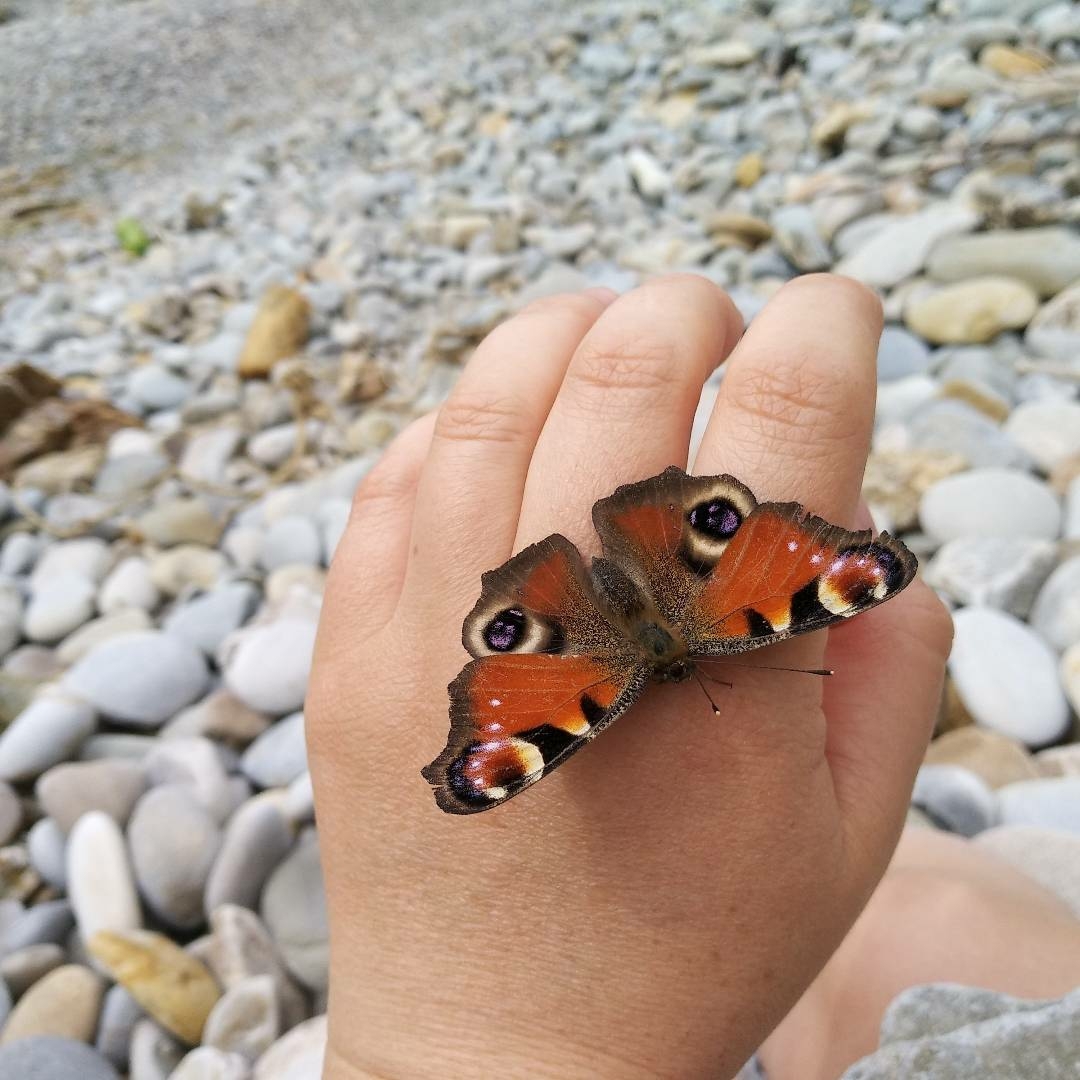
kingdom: Animalia
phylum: Arthropoda
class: Insecta
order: Lepidoptera
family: Nymphalidae
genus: Aglais
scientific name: Aglais io
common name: Peacock
